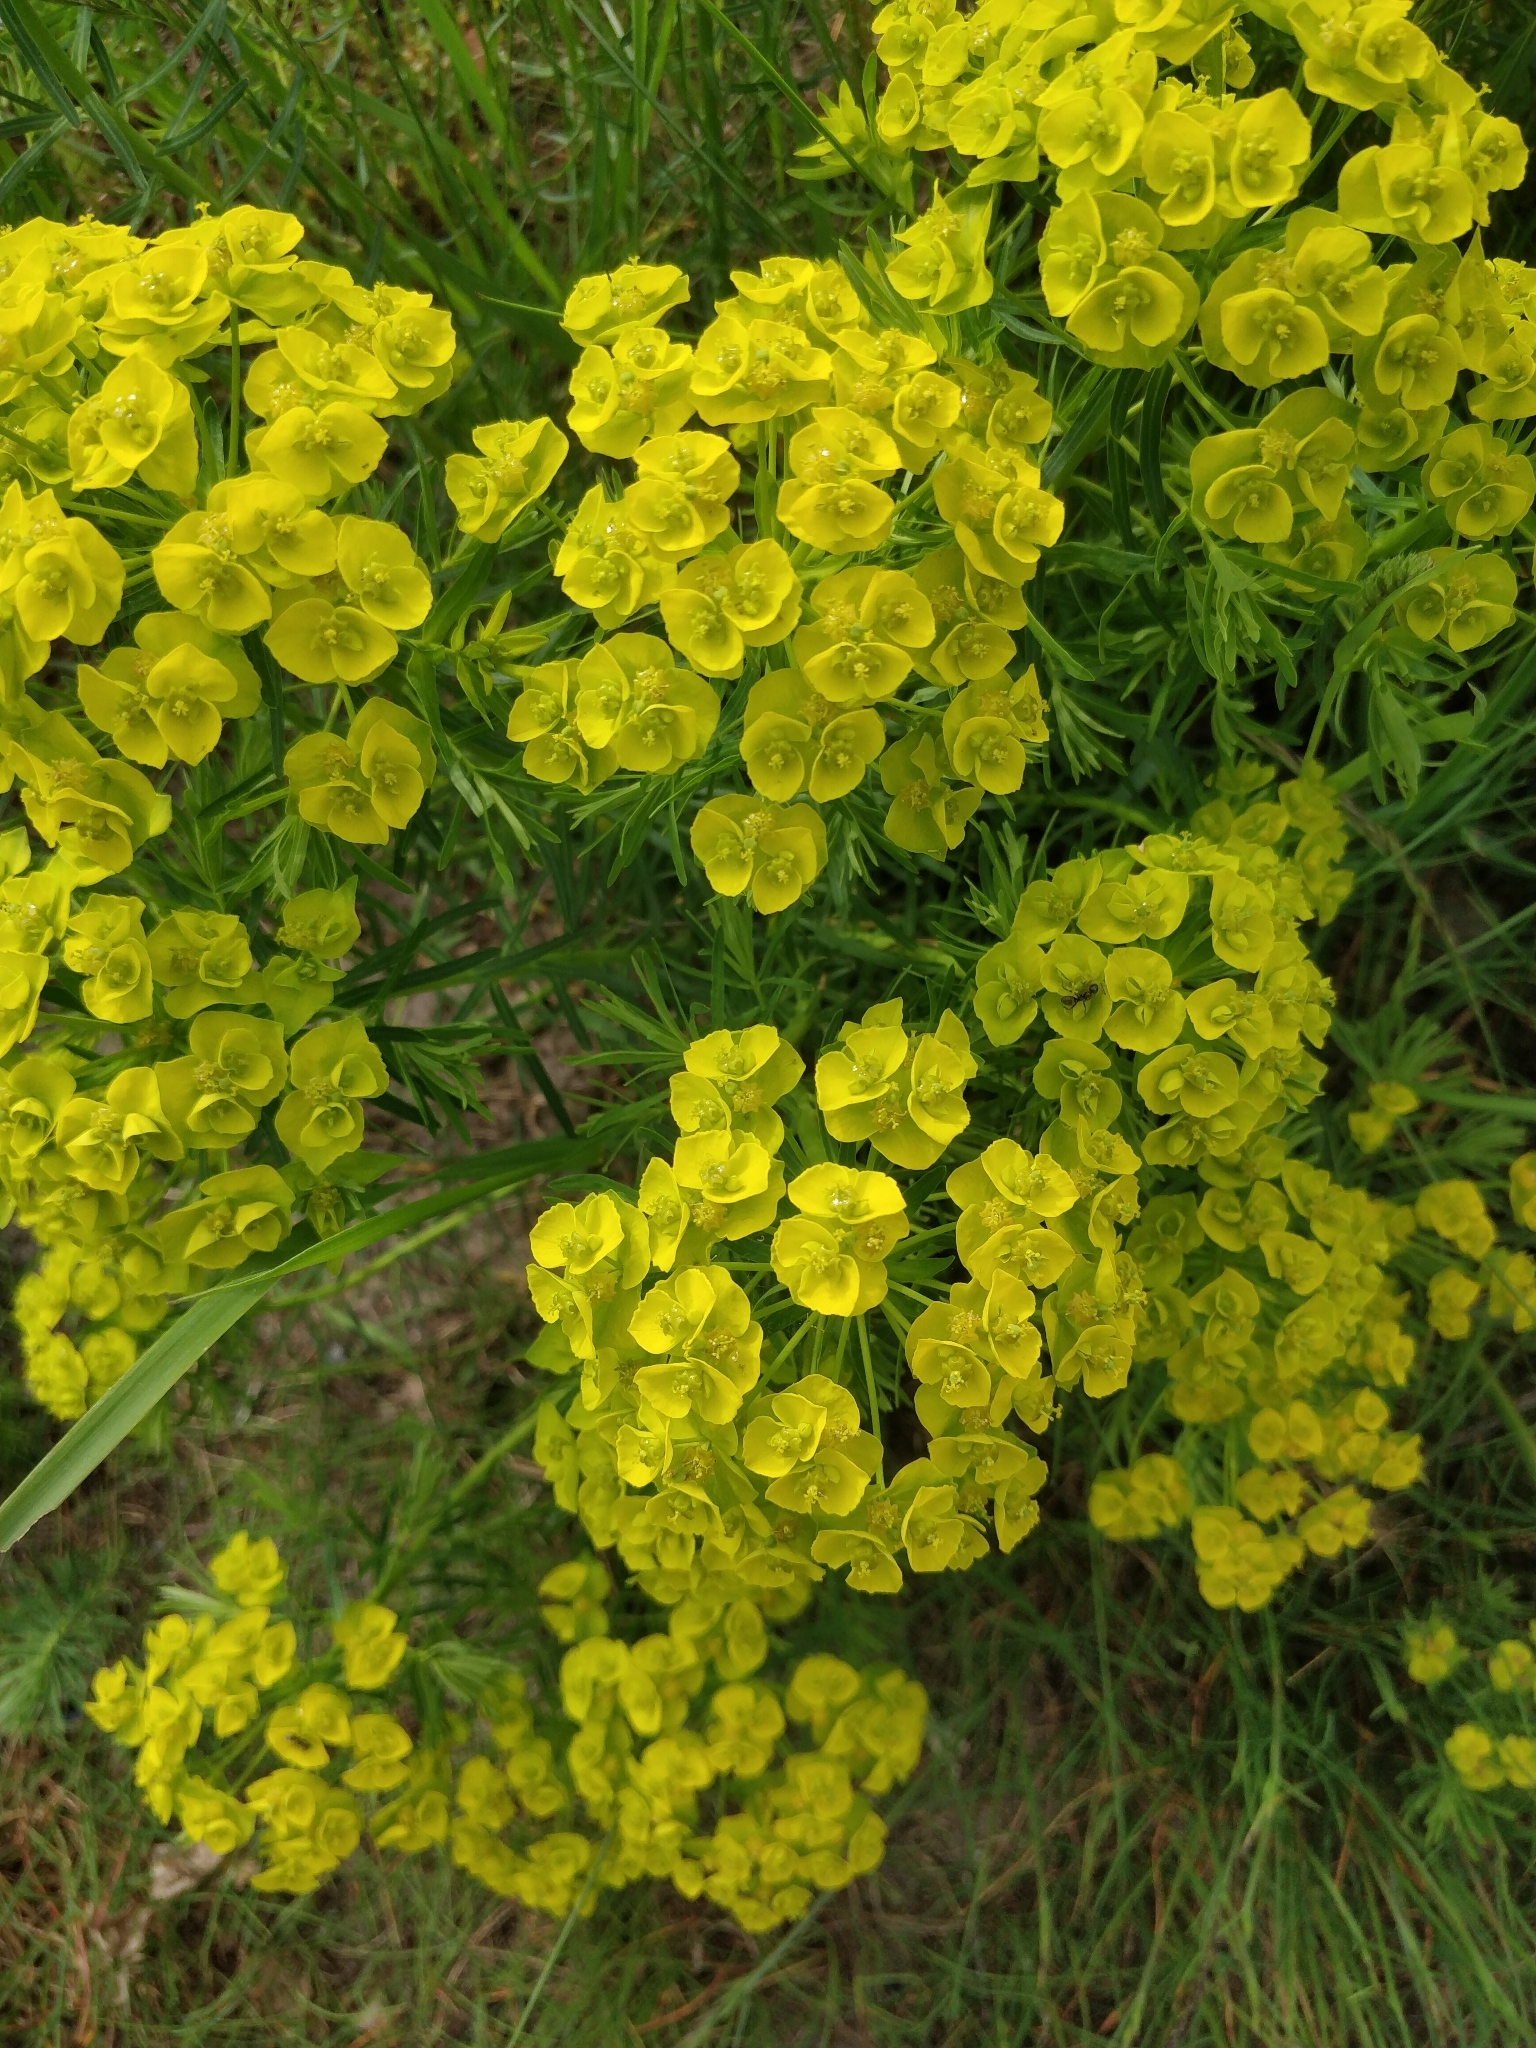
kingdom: Plantae
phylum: Tracheophyta
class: Magnoliopsida
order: Malpighiales
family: Euphorbiaceae
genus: Euphorbia
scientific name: Euphorbia cyparissias
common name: Cypress spurge
